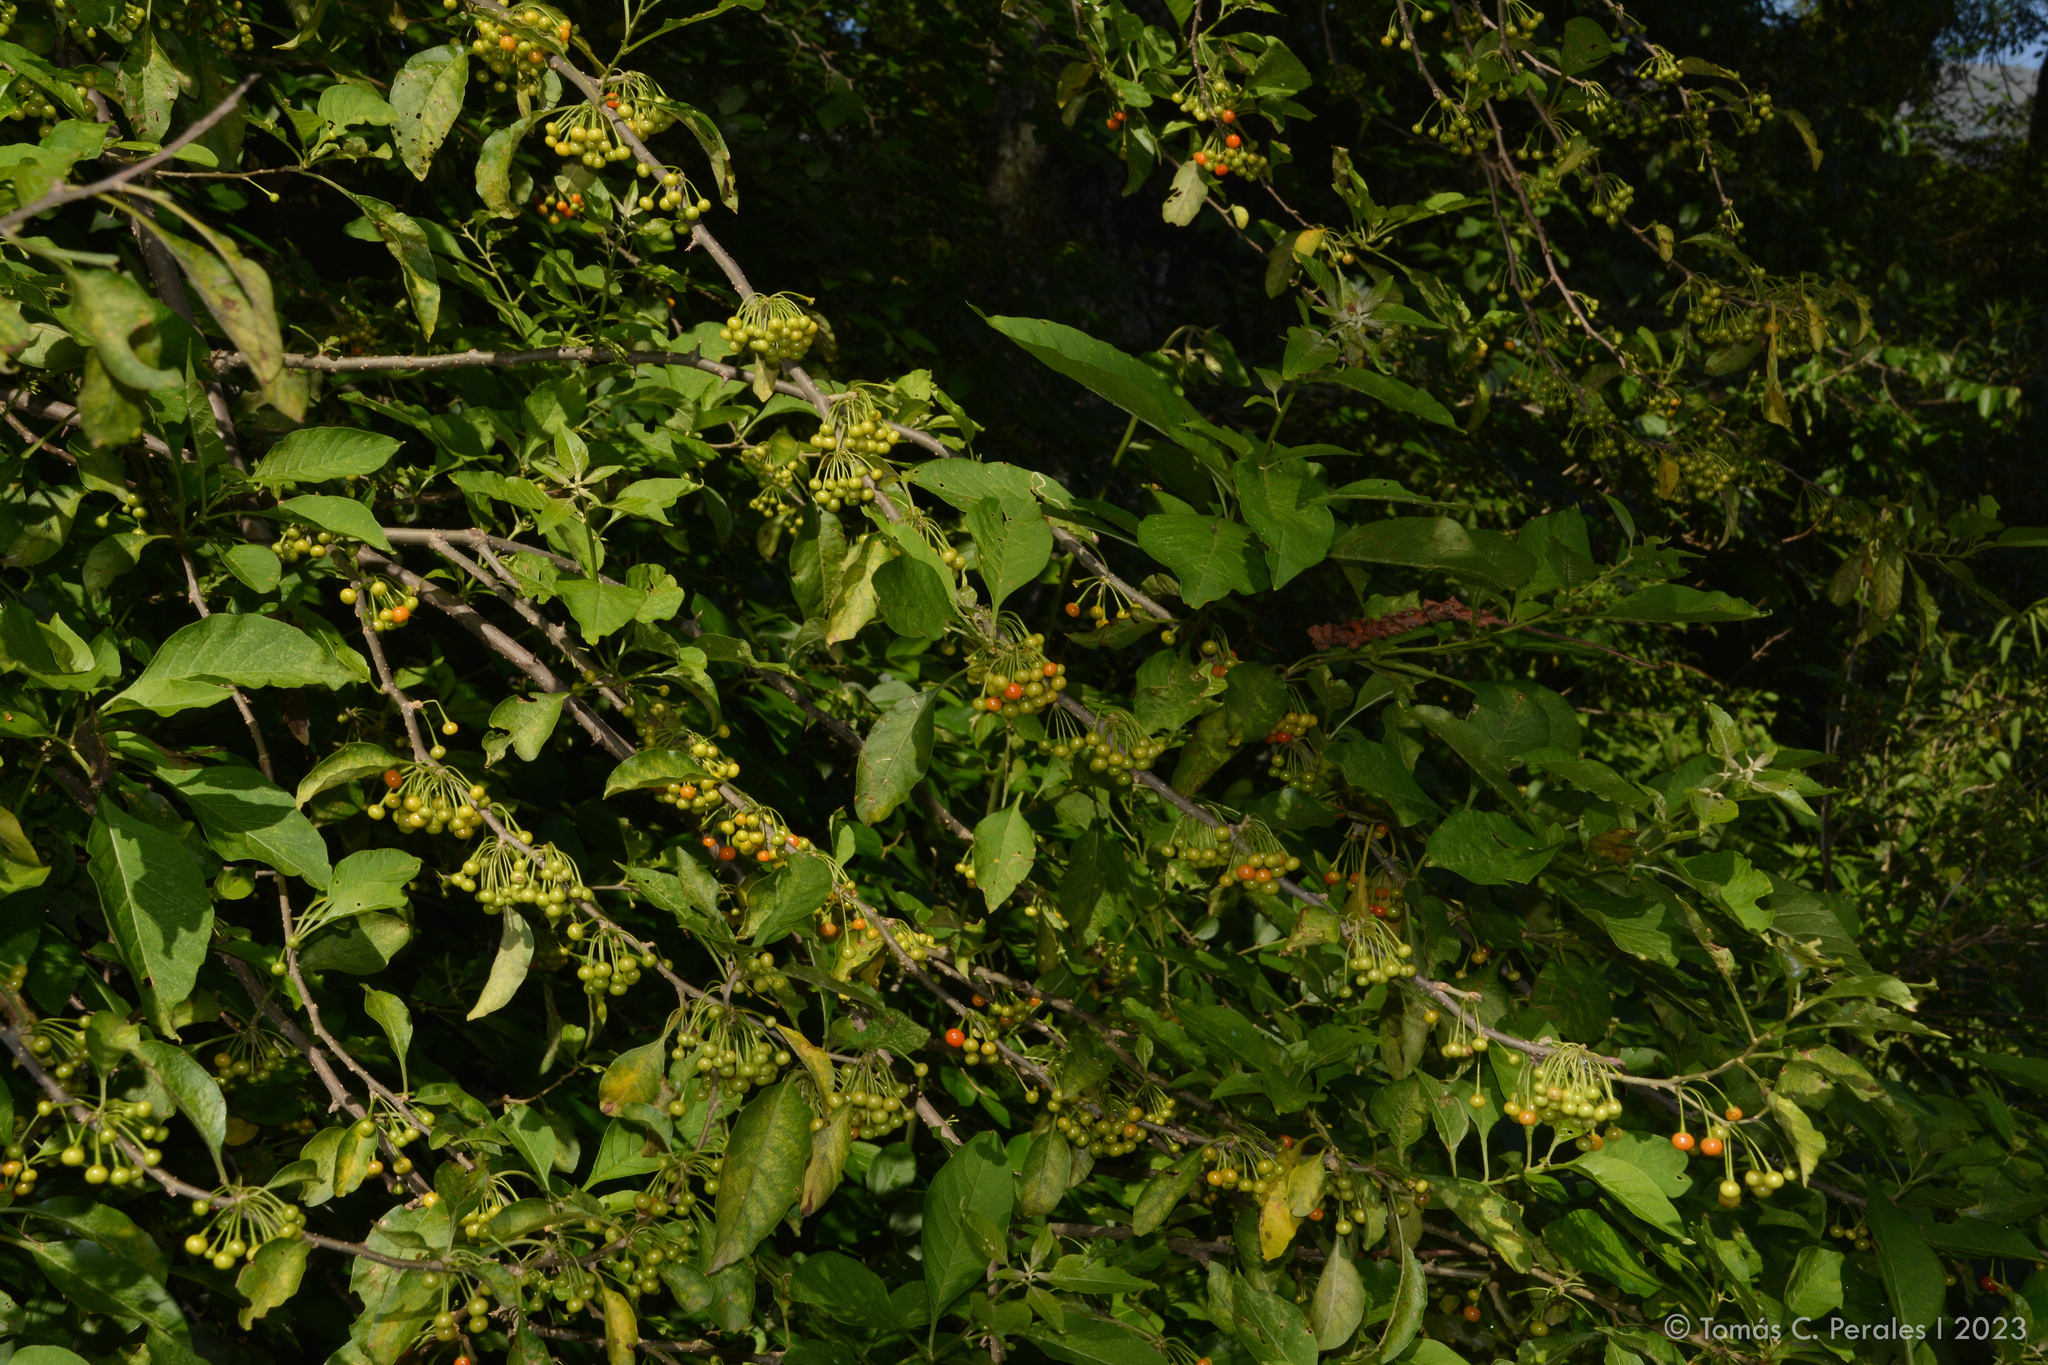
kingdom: Plantae
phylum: Tracheophyta
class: Magnoliopsida
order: Solanales
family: Solanaceae
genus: Vassobia
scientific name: Vassobia breviflora
